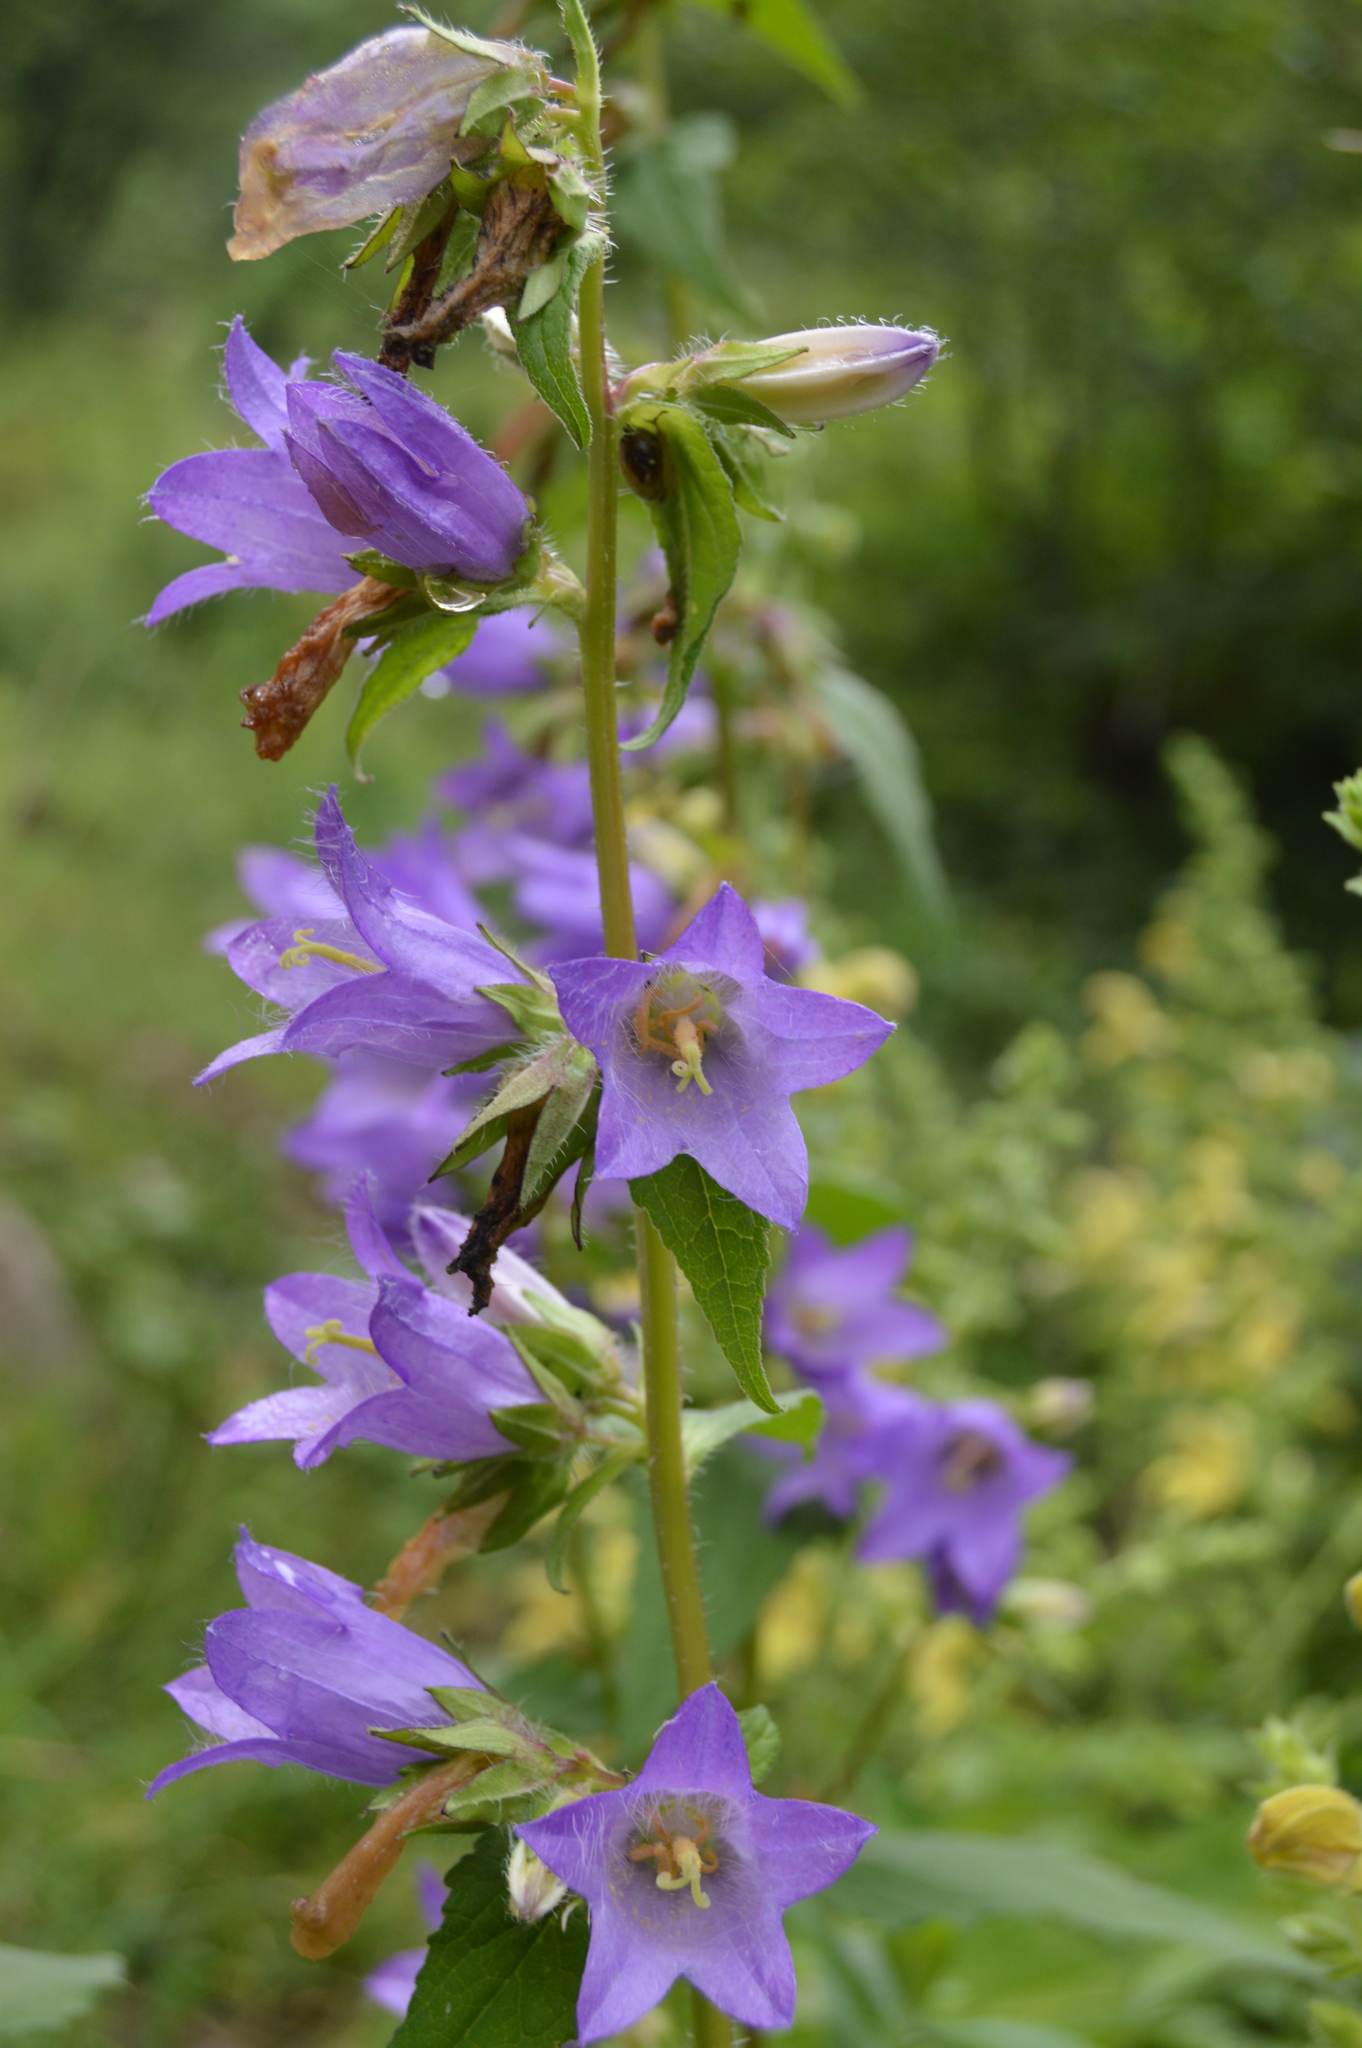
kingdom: Plantae
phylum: Tracheophyta
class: Magnoliopsida
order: Asterales
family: Campanulaceae
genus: Campanula
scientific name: Campanula trachelium
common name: Nettle-leaved bellflower
